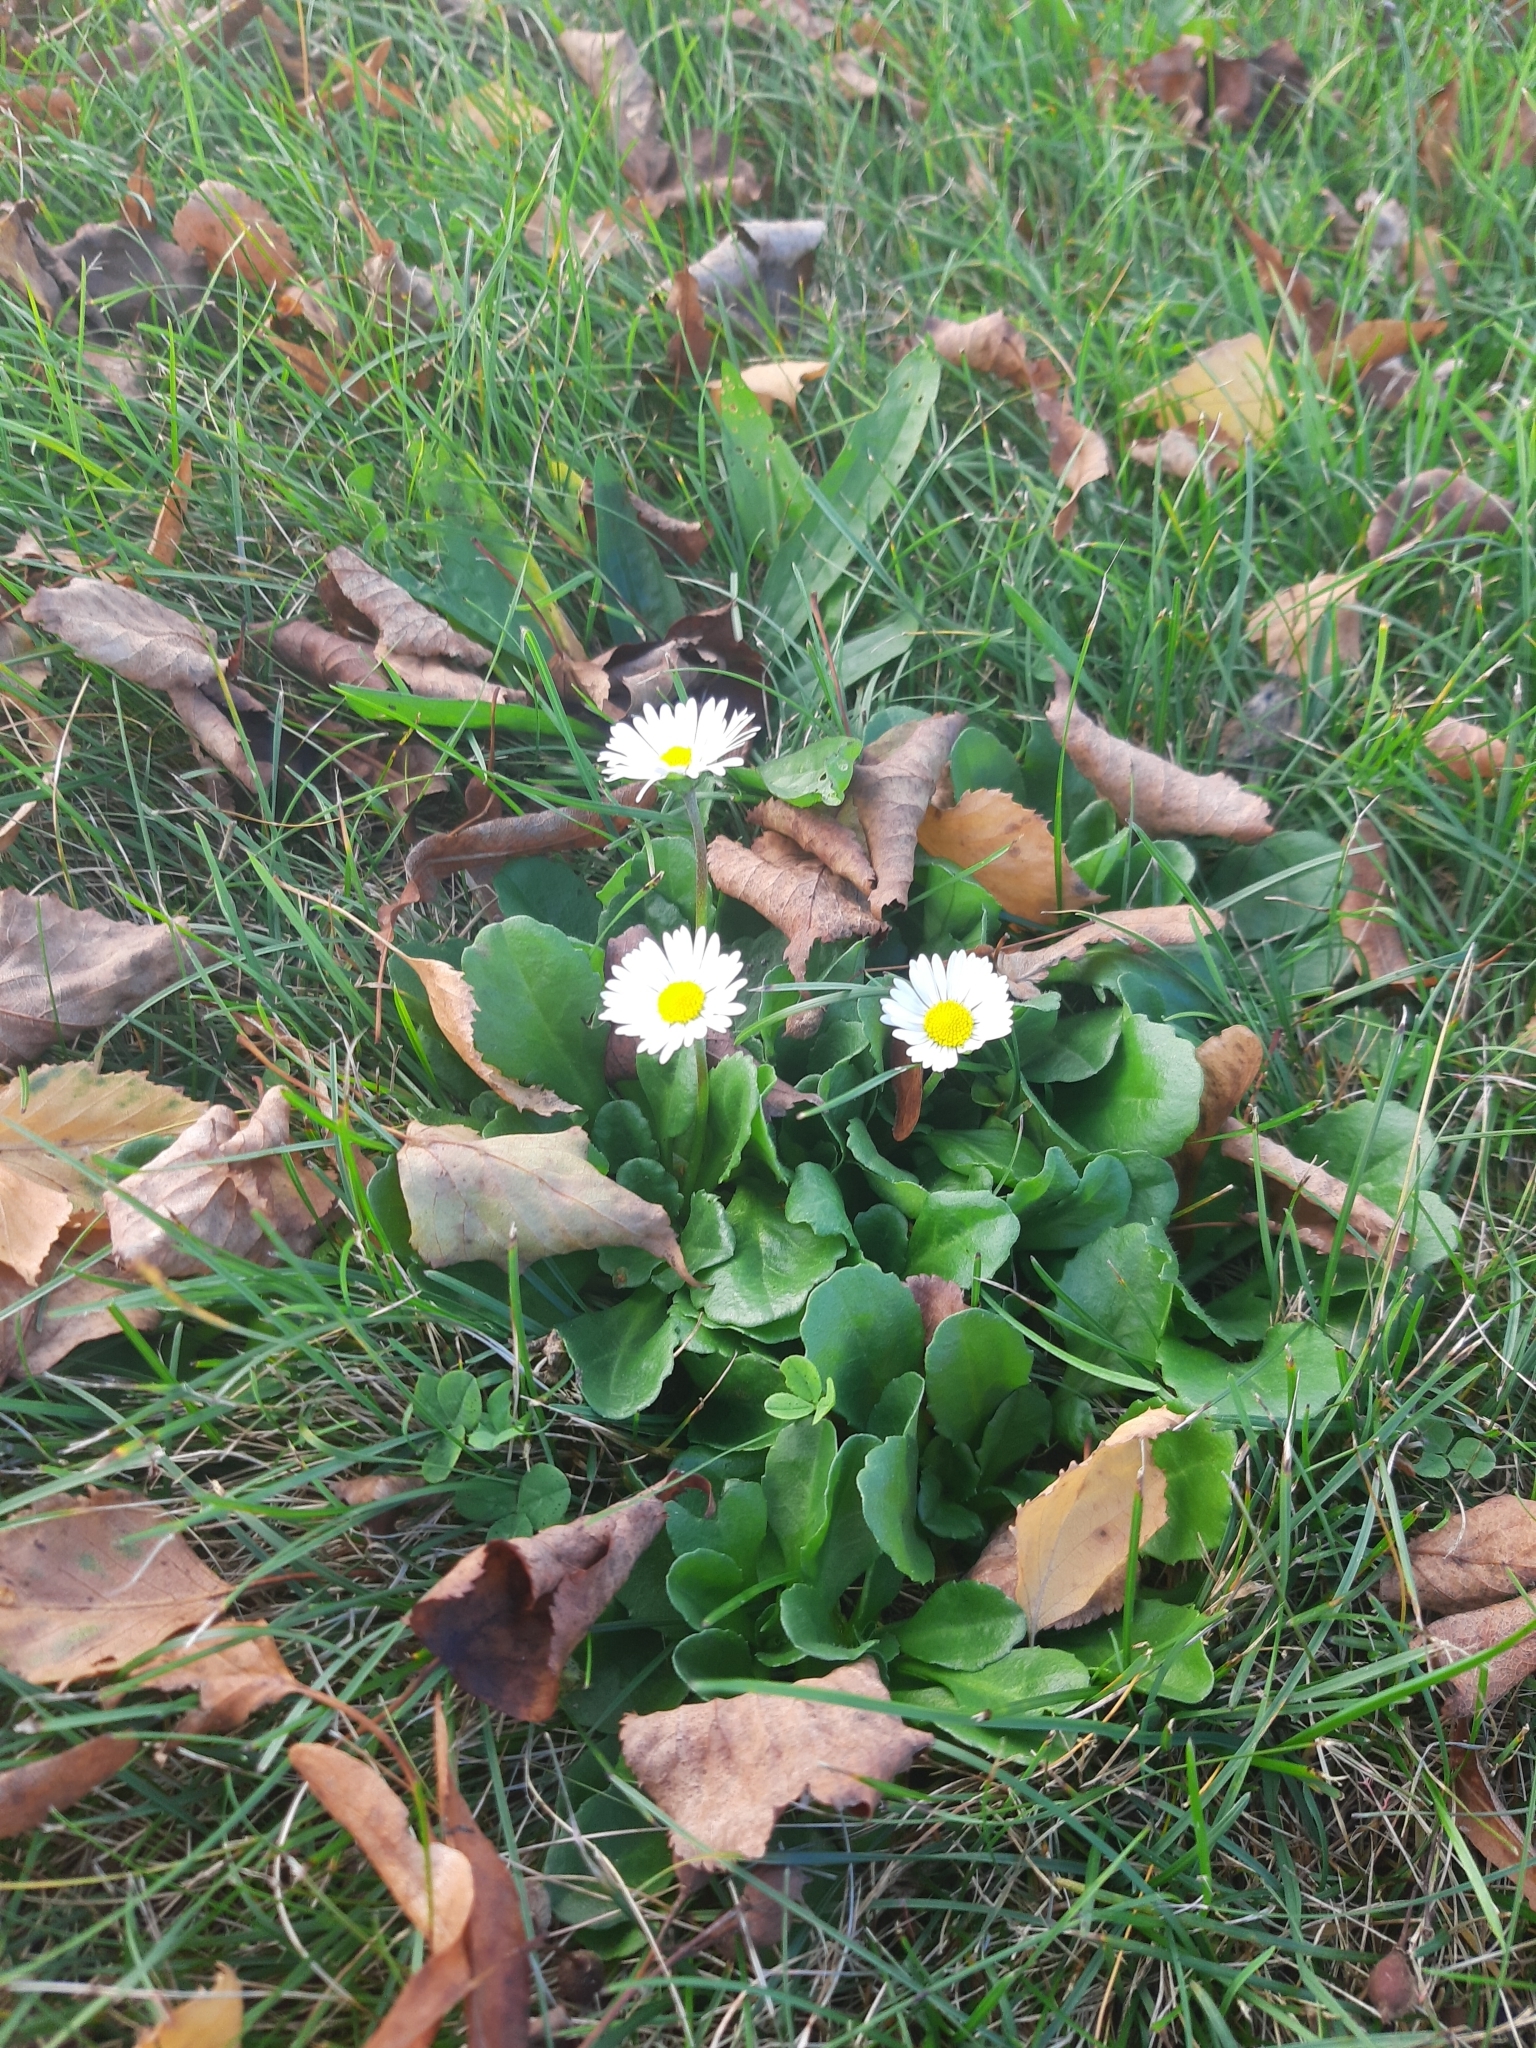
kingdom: Plantae
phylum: Tracheophyta
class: Magnoliopsida
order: Asterales
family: Asteraceae
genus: Bellis
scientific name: Bellis perennis
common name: Lawndaisy
